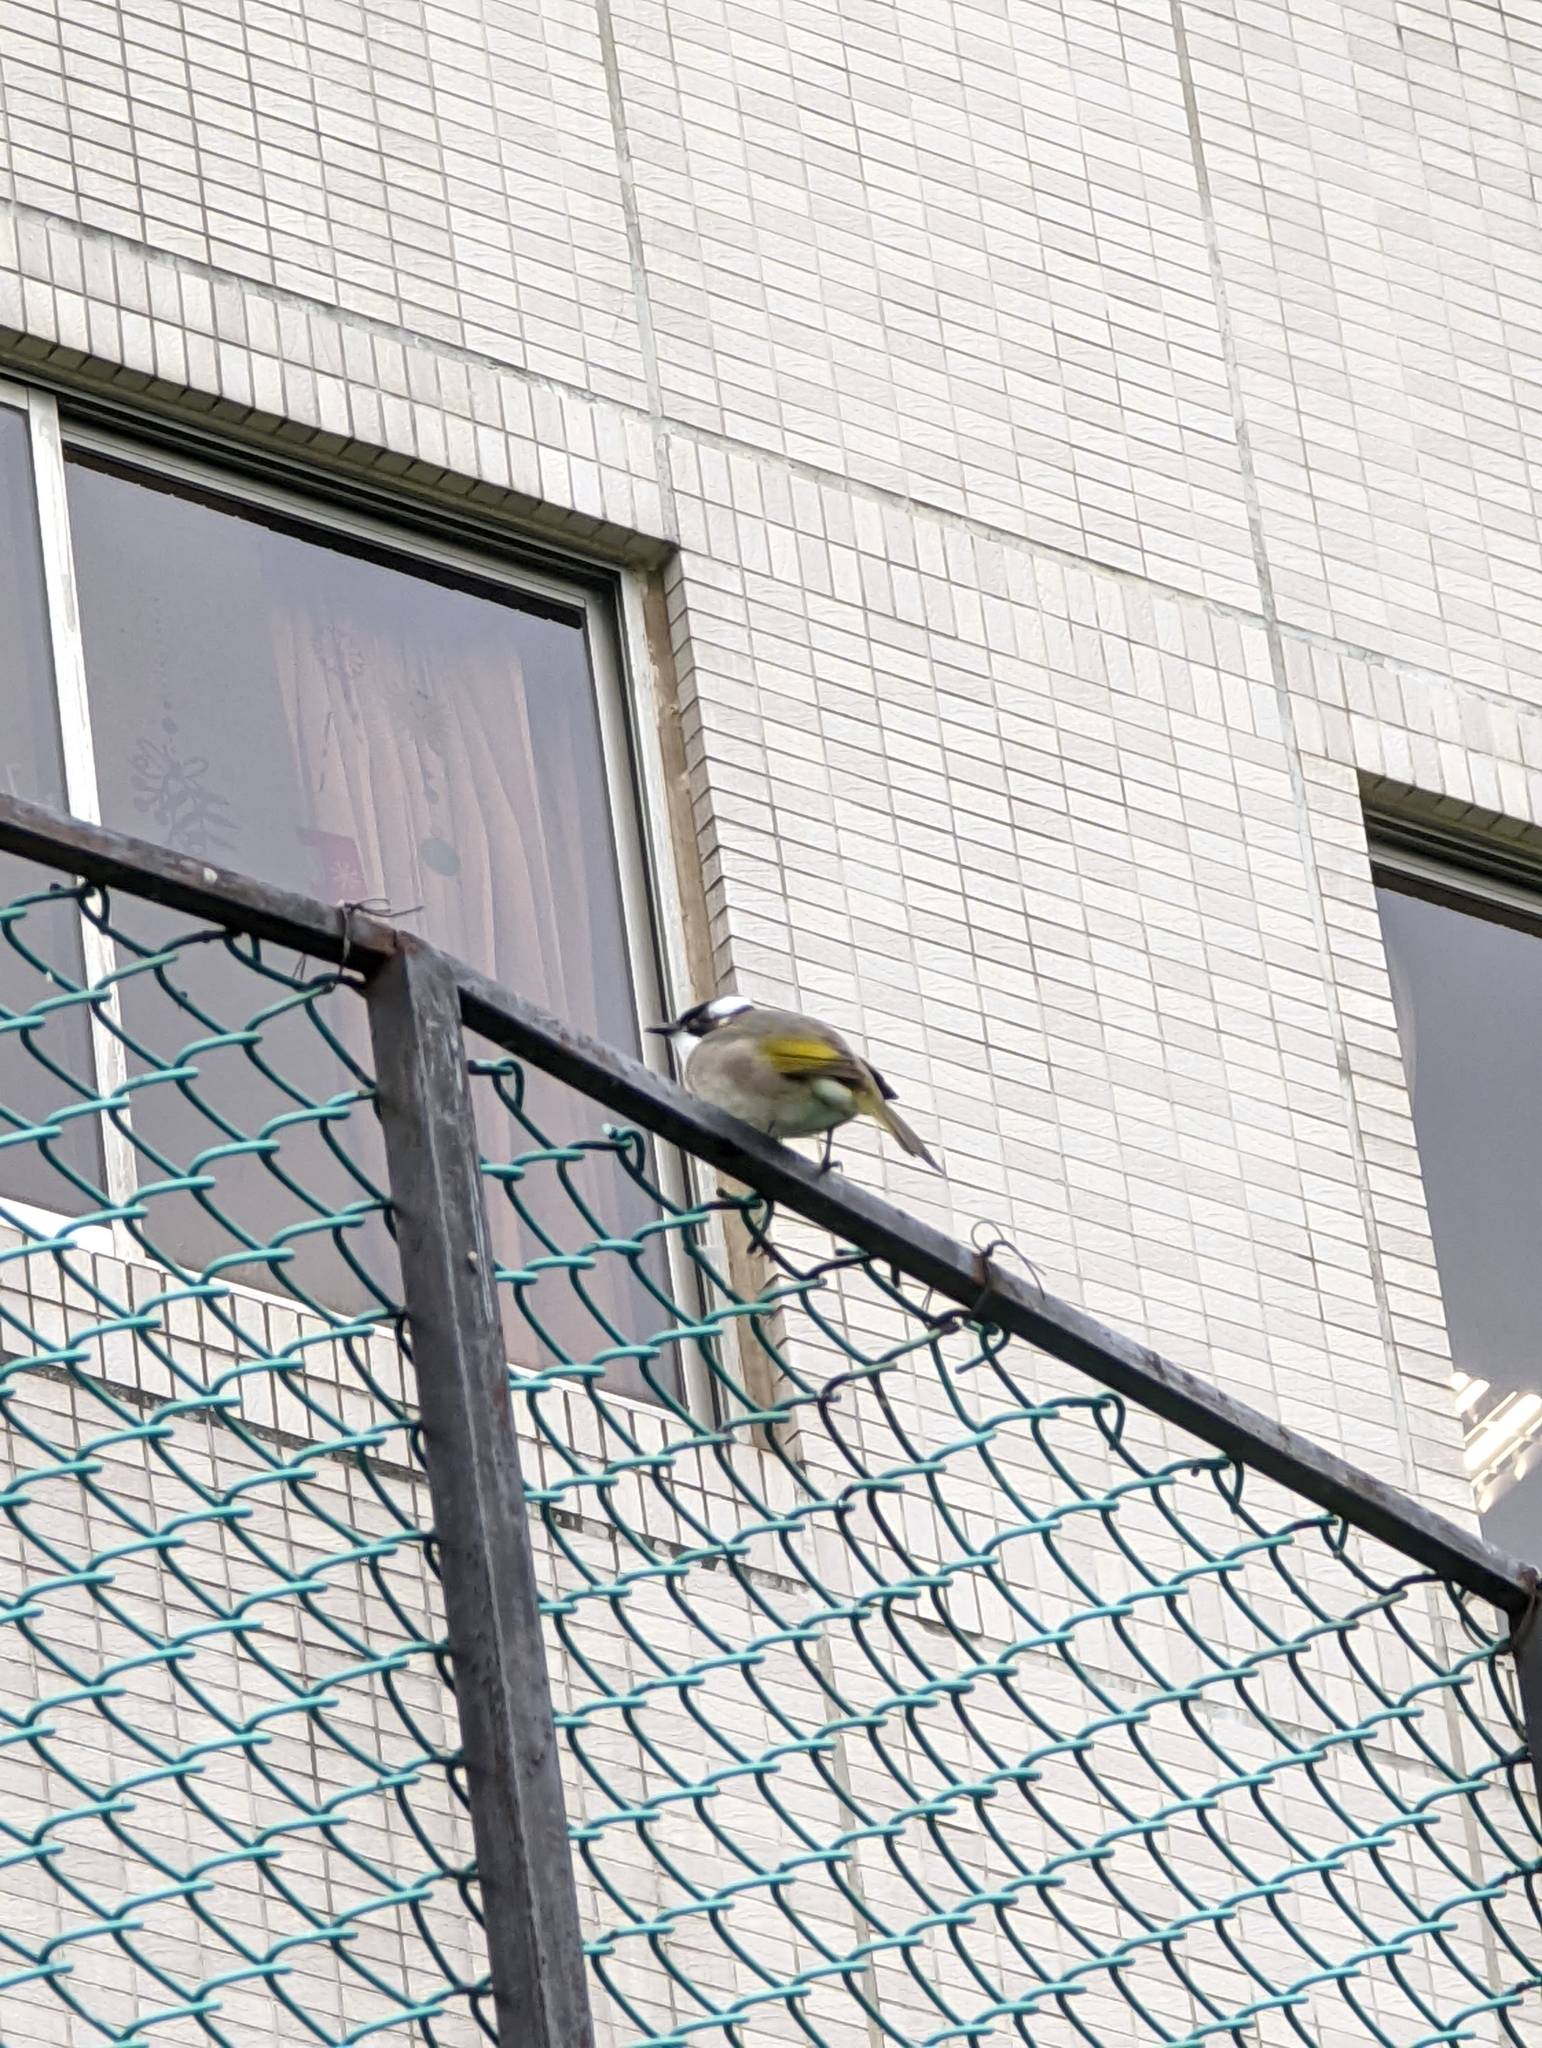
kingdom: Animalia
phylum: Chordata
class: Aves
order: Passeriformes
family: Pycnonotidae
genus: Pycnonotus
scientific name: Pycnonotus sinensis
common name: Light-vented bulbul
